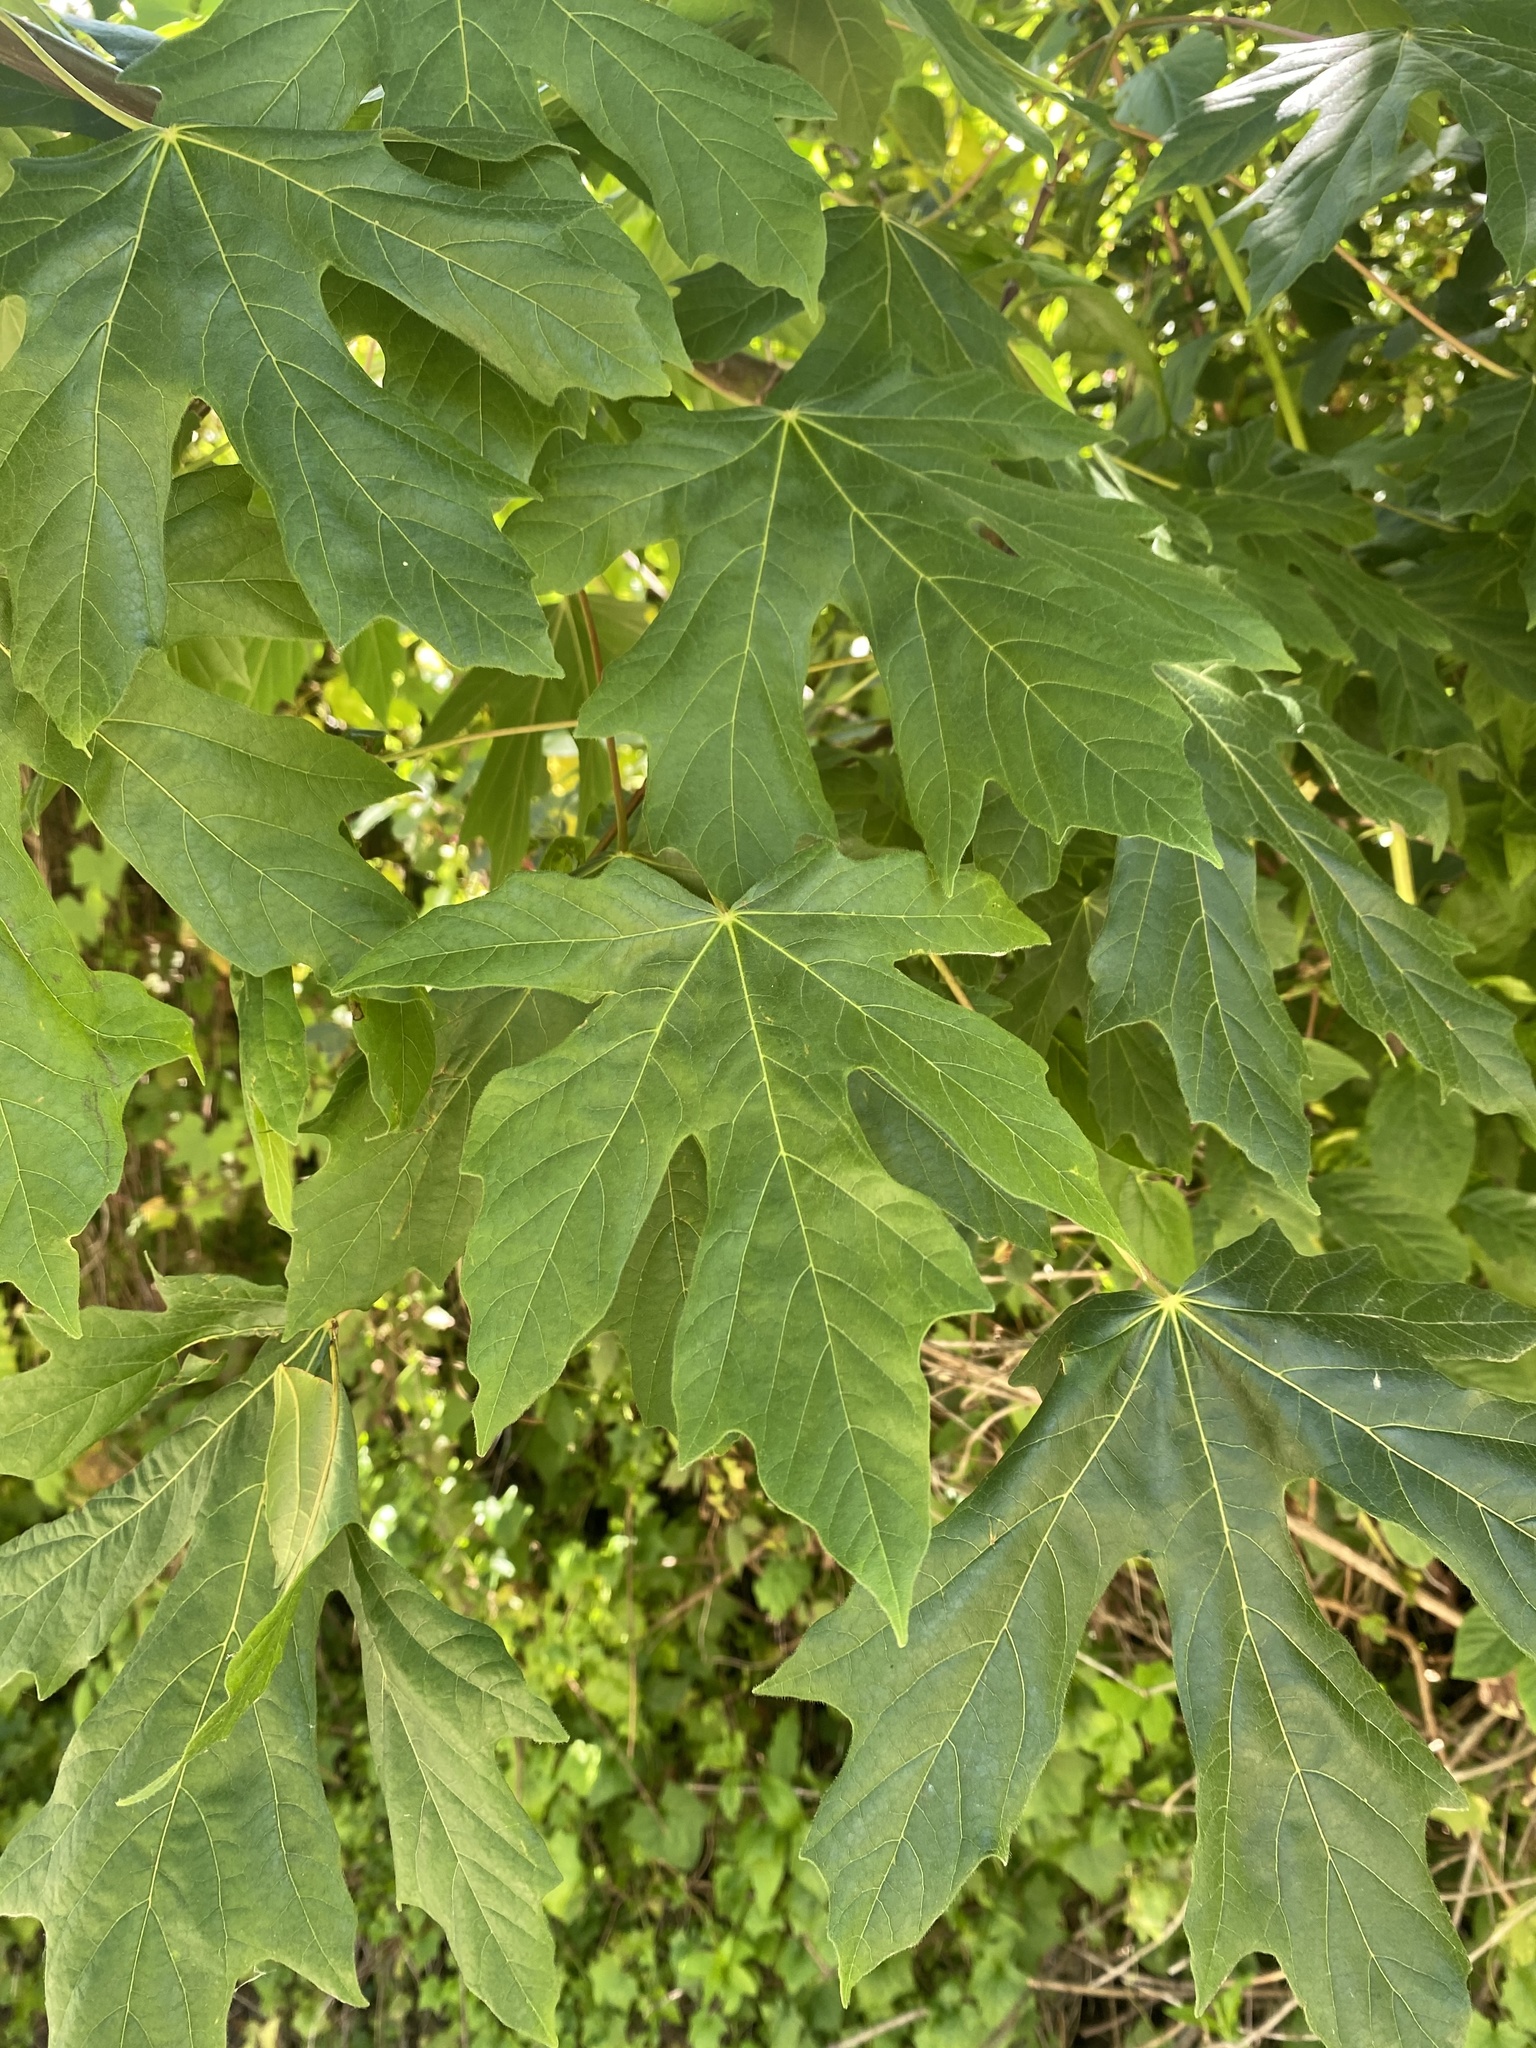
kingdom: Plantae
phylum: Tracheophyta
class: Magnoliopsida
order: Sapindales
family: Sapindaceae
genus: Acer
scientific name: Acer macrophyllum
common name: Oregon maple
